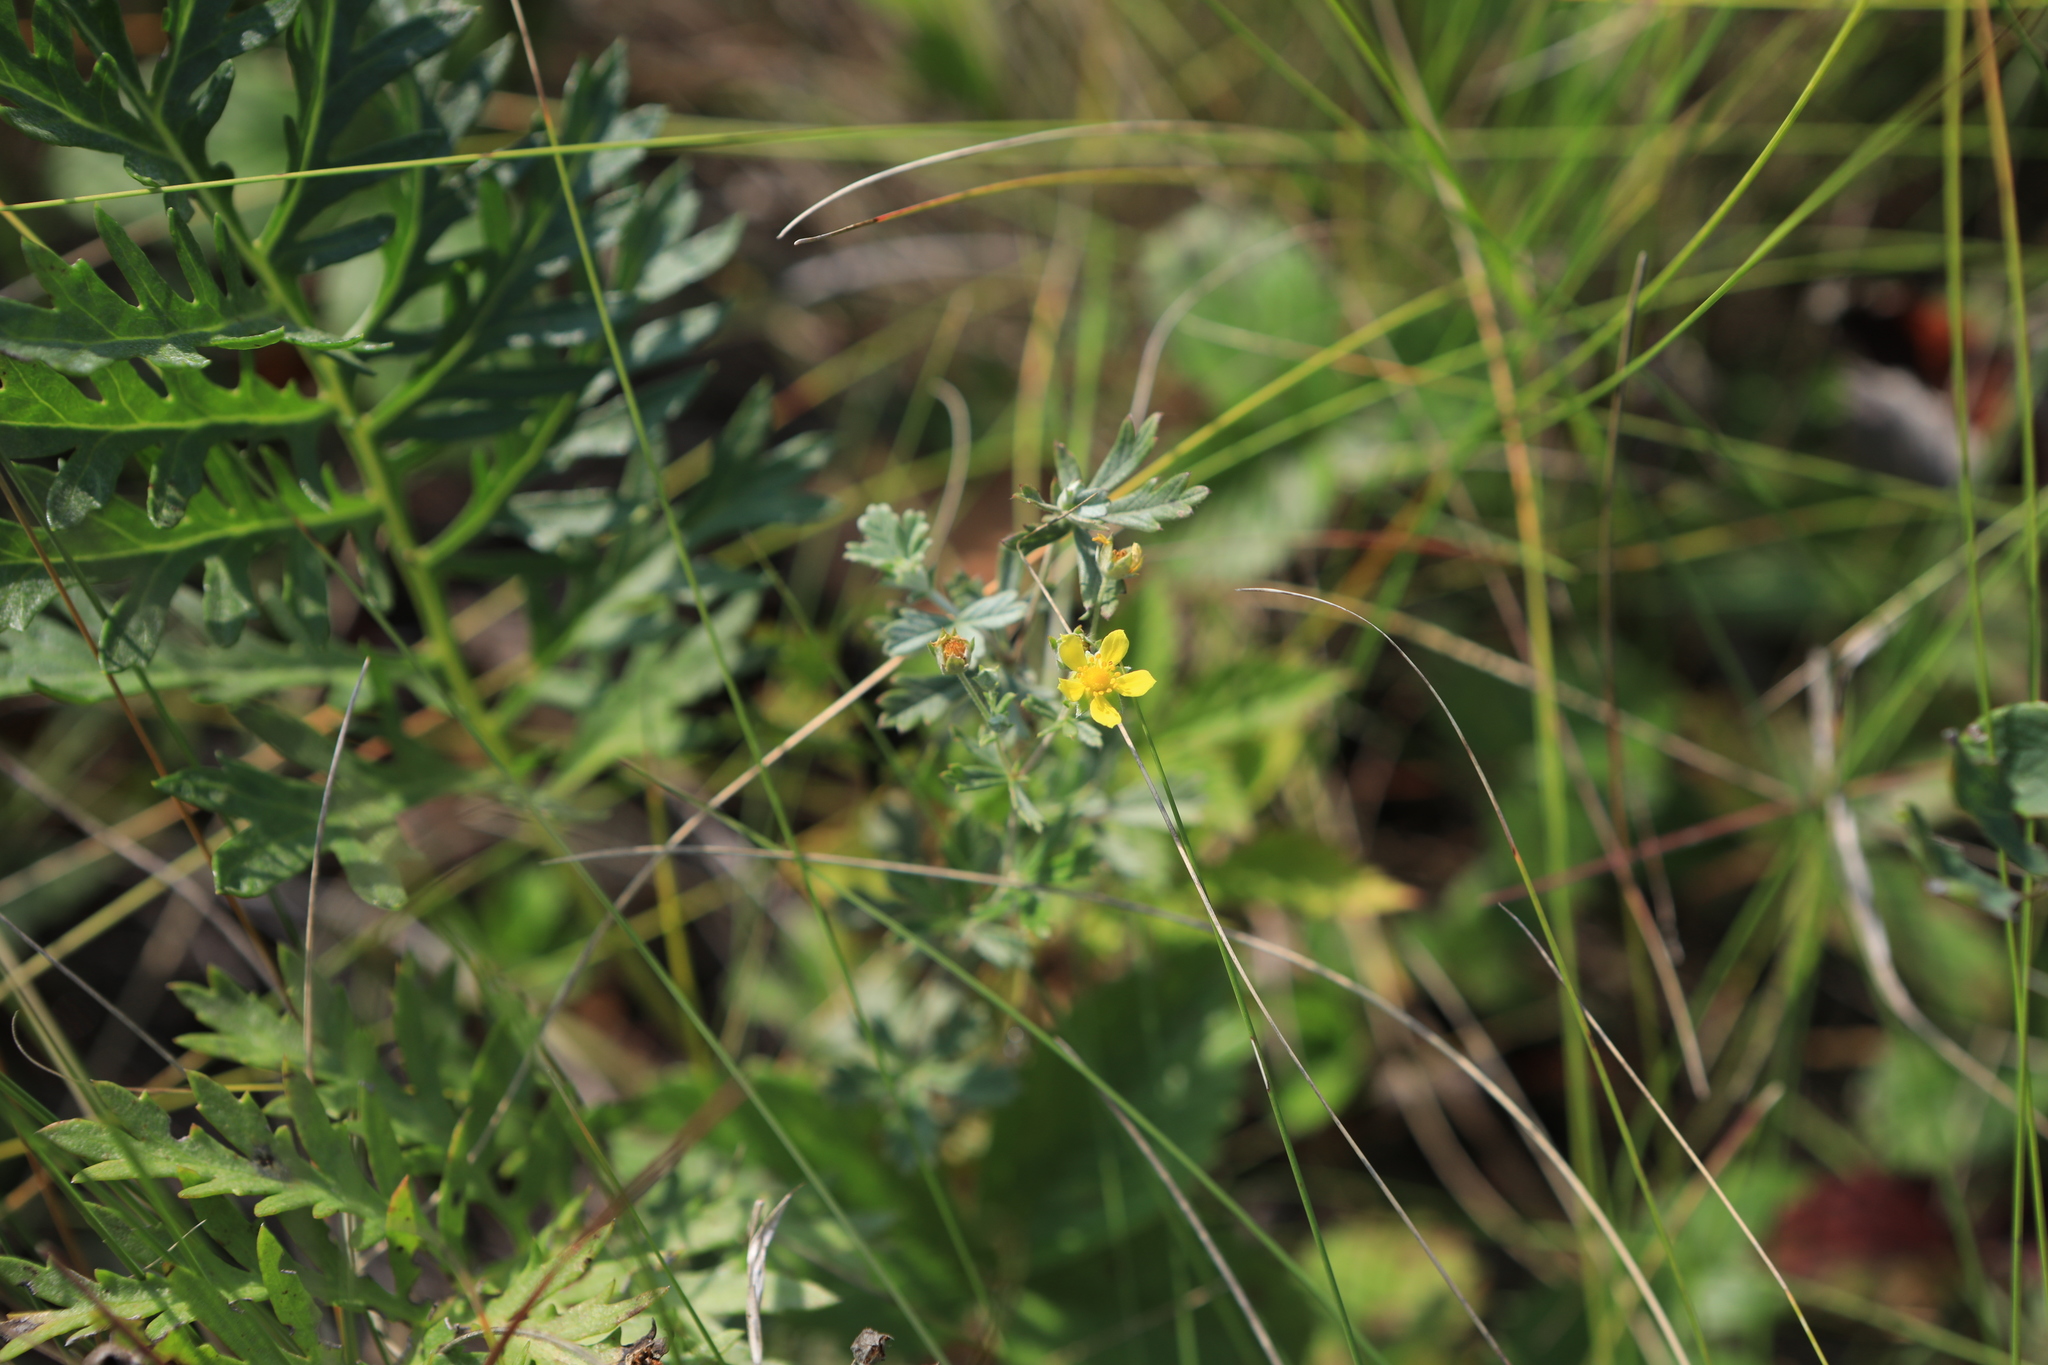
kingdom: Plantae
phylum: Tracheophyta
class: Magnoliopsida
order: Rosales
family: Rosaceae
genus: Potentilla
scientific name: Potentilla argentea
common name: Hoary cinquefoil
